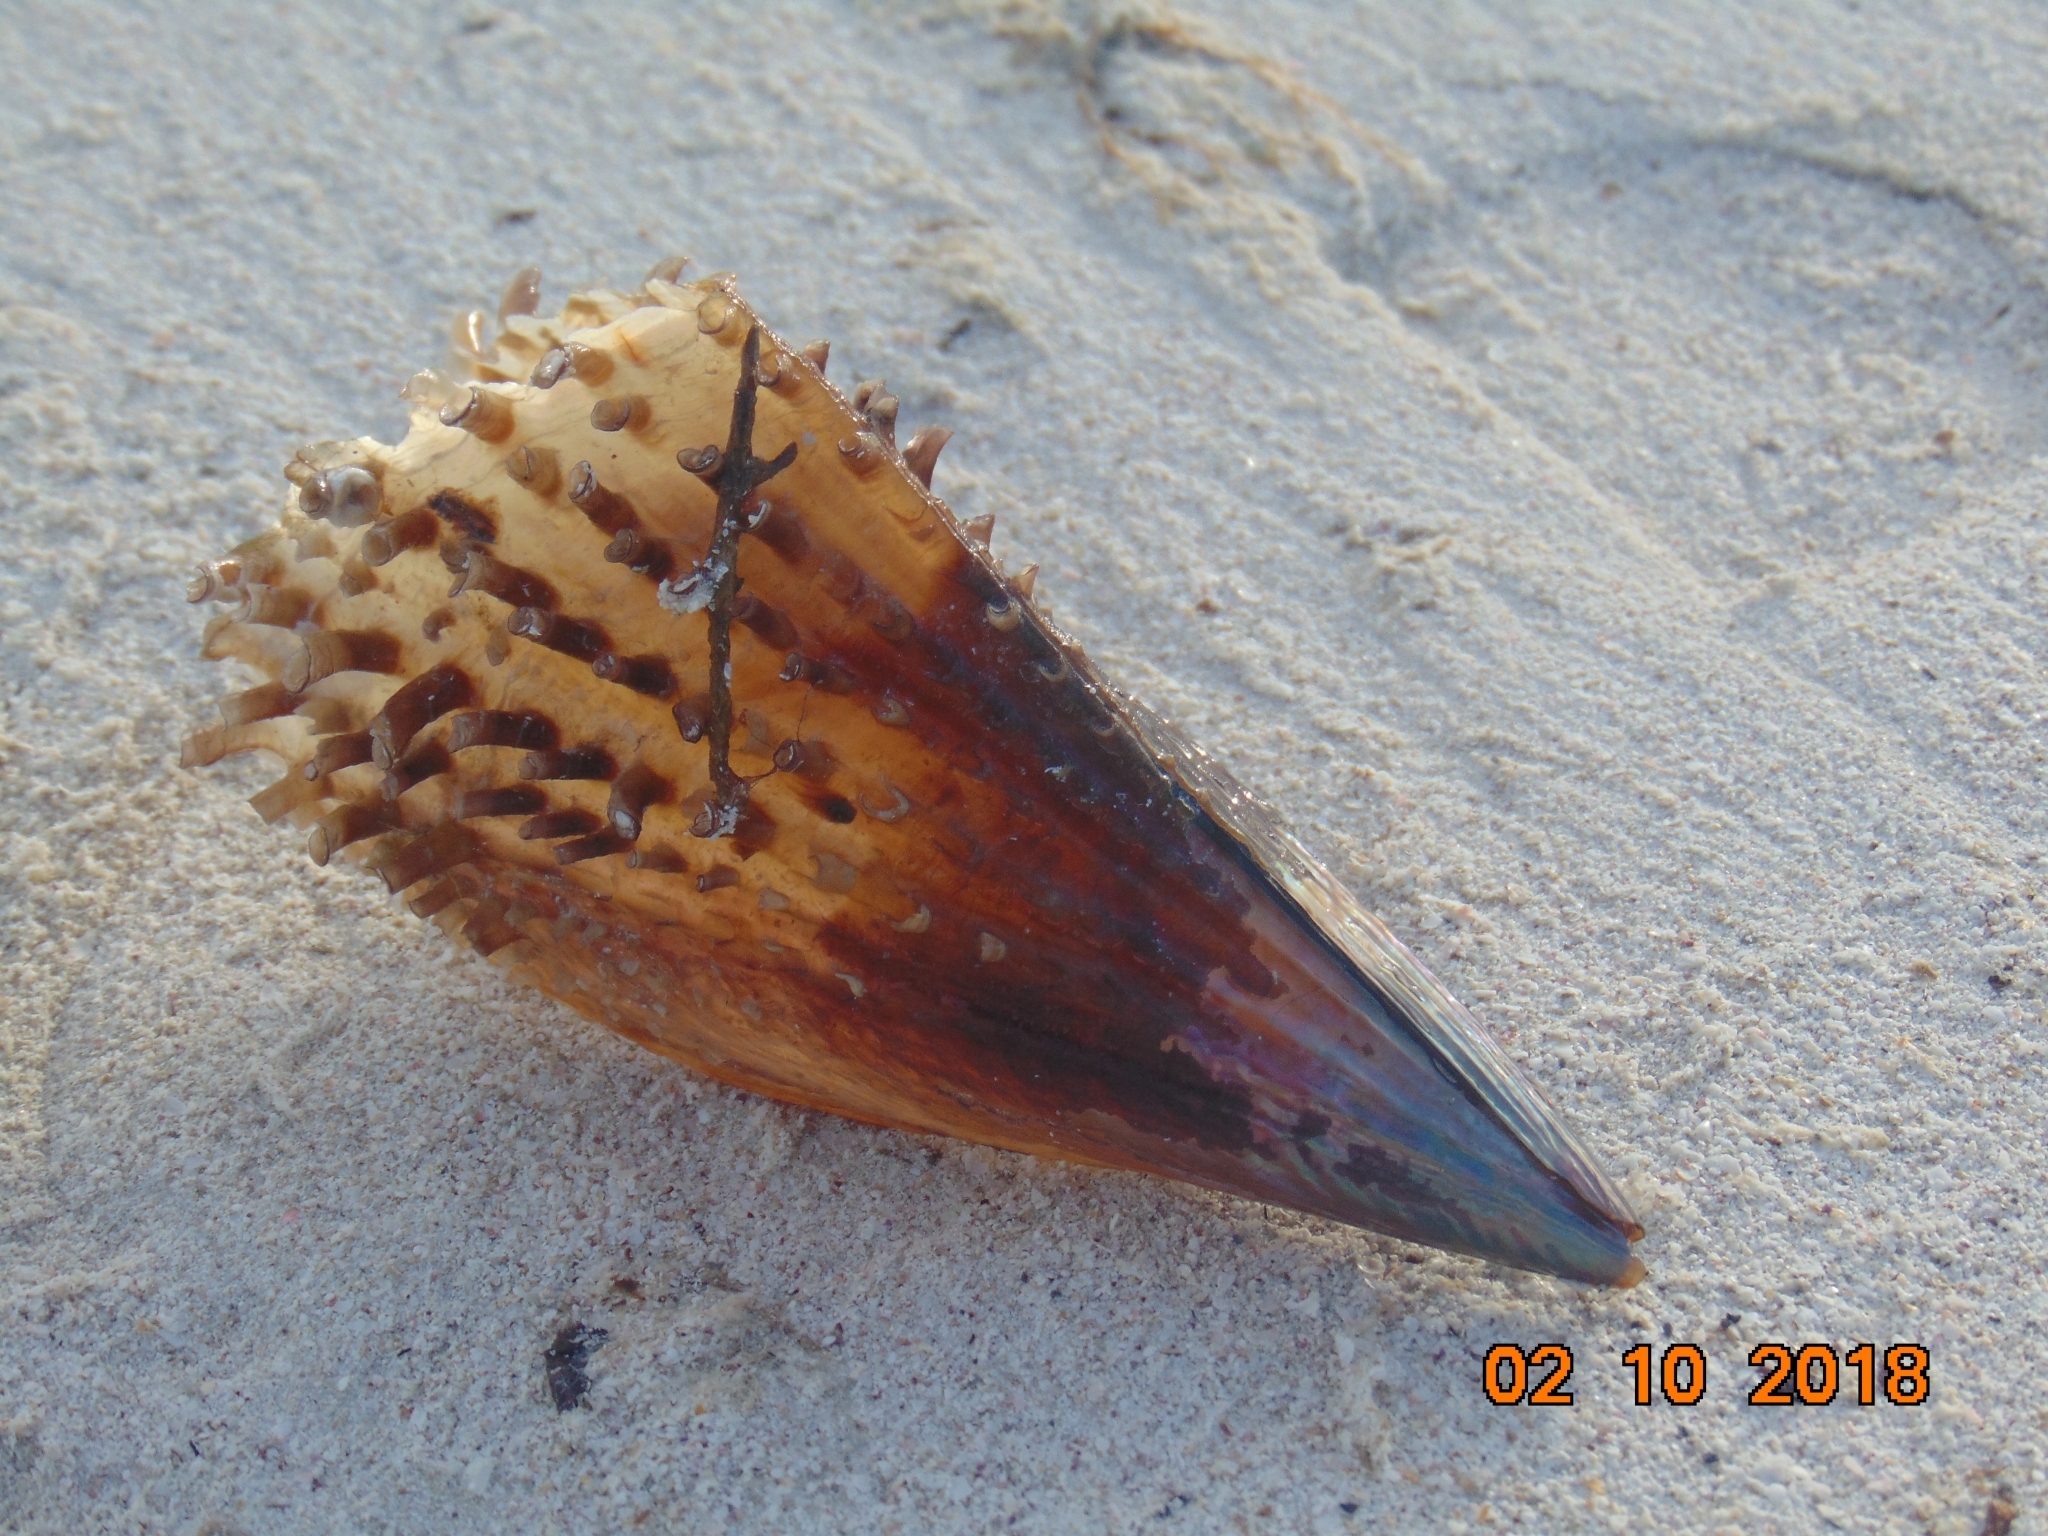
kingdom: Animalia
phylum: Mollusca
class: Bivalvia
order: Ostreida
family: Pinnidae
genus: Atrina
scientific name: Atrina rigida
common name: Stiff penshell
